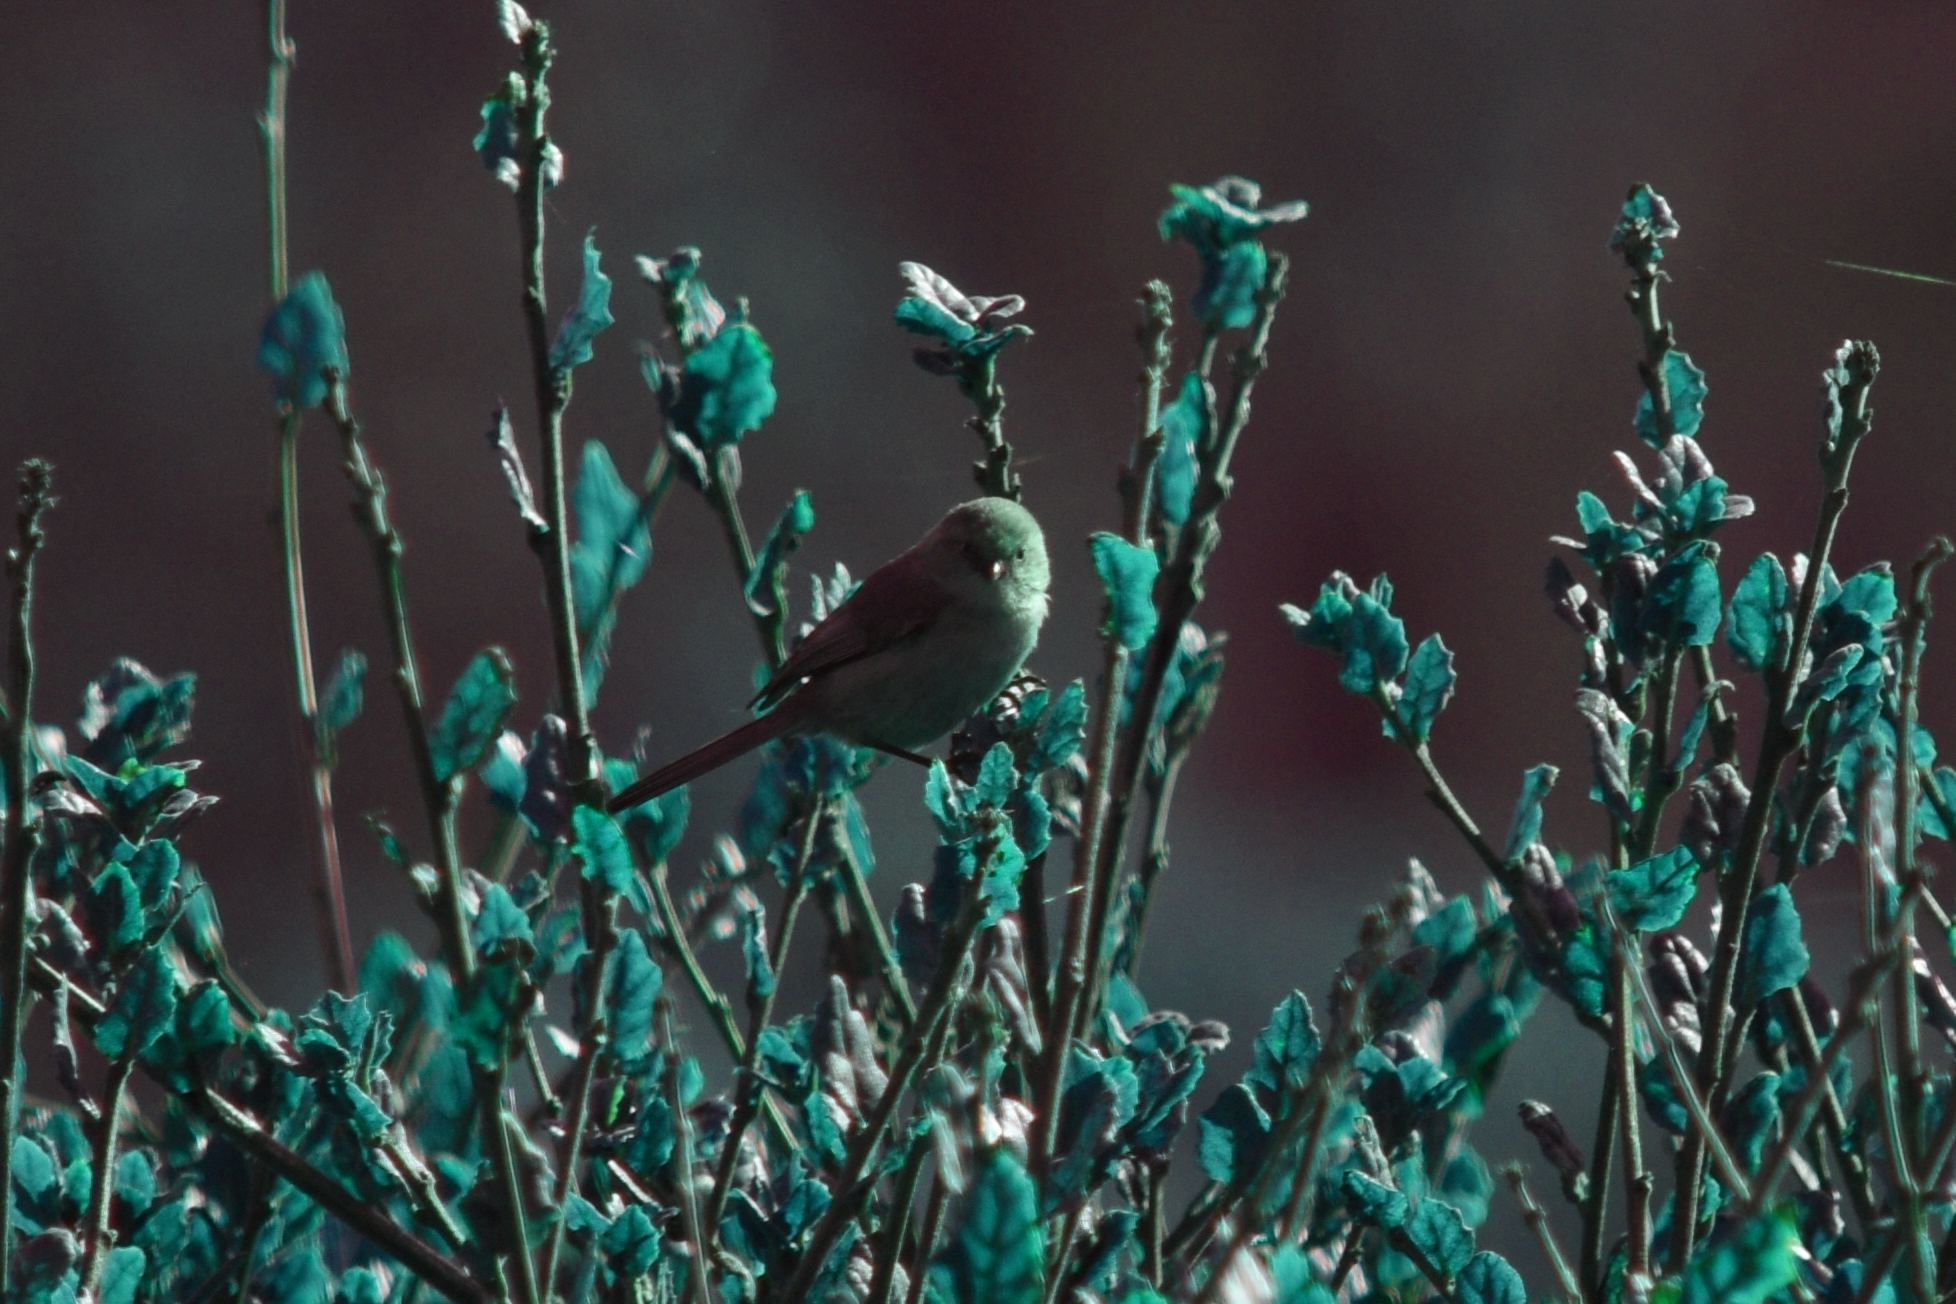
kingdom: Animalia
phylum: Chordata
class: Aves
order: Passeriformes
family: Aegithalidae
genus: Psaltriparus
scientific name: Psaltriparus minimus
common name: American bushtit
